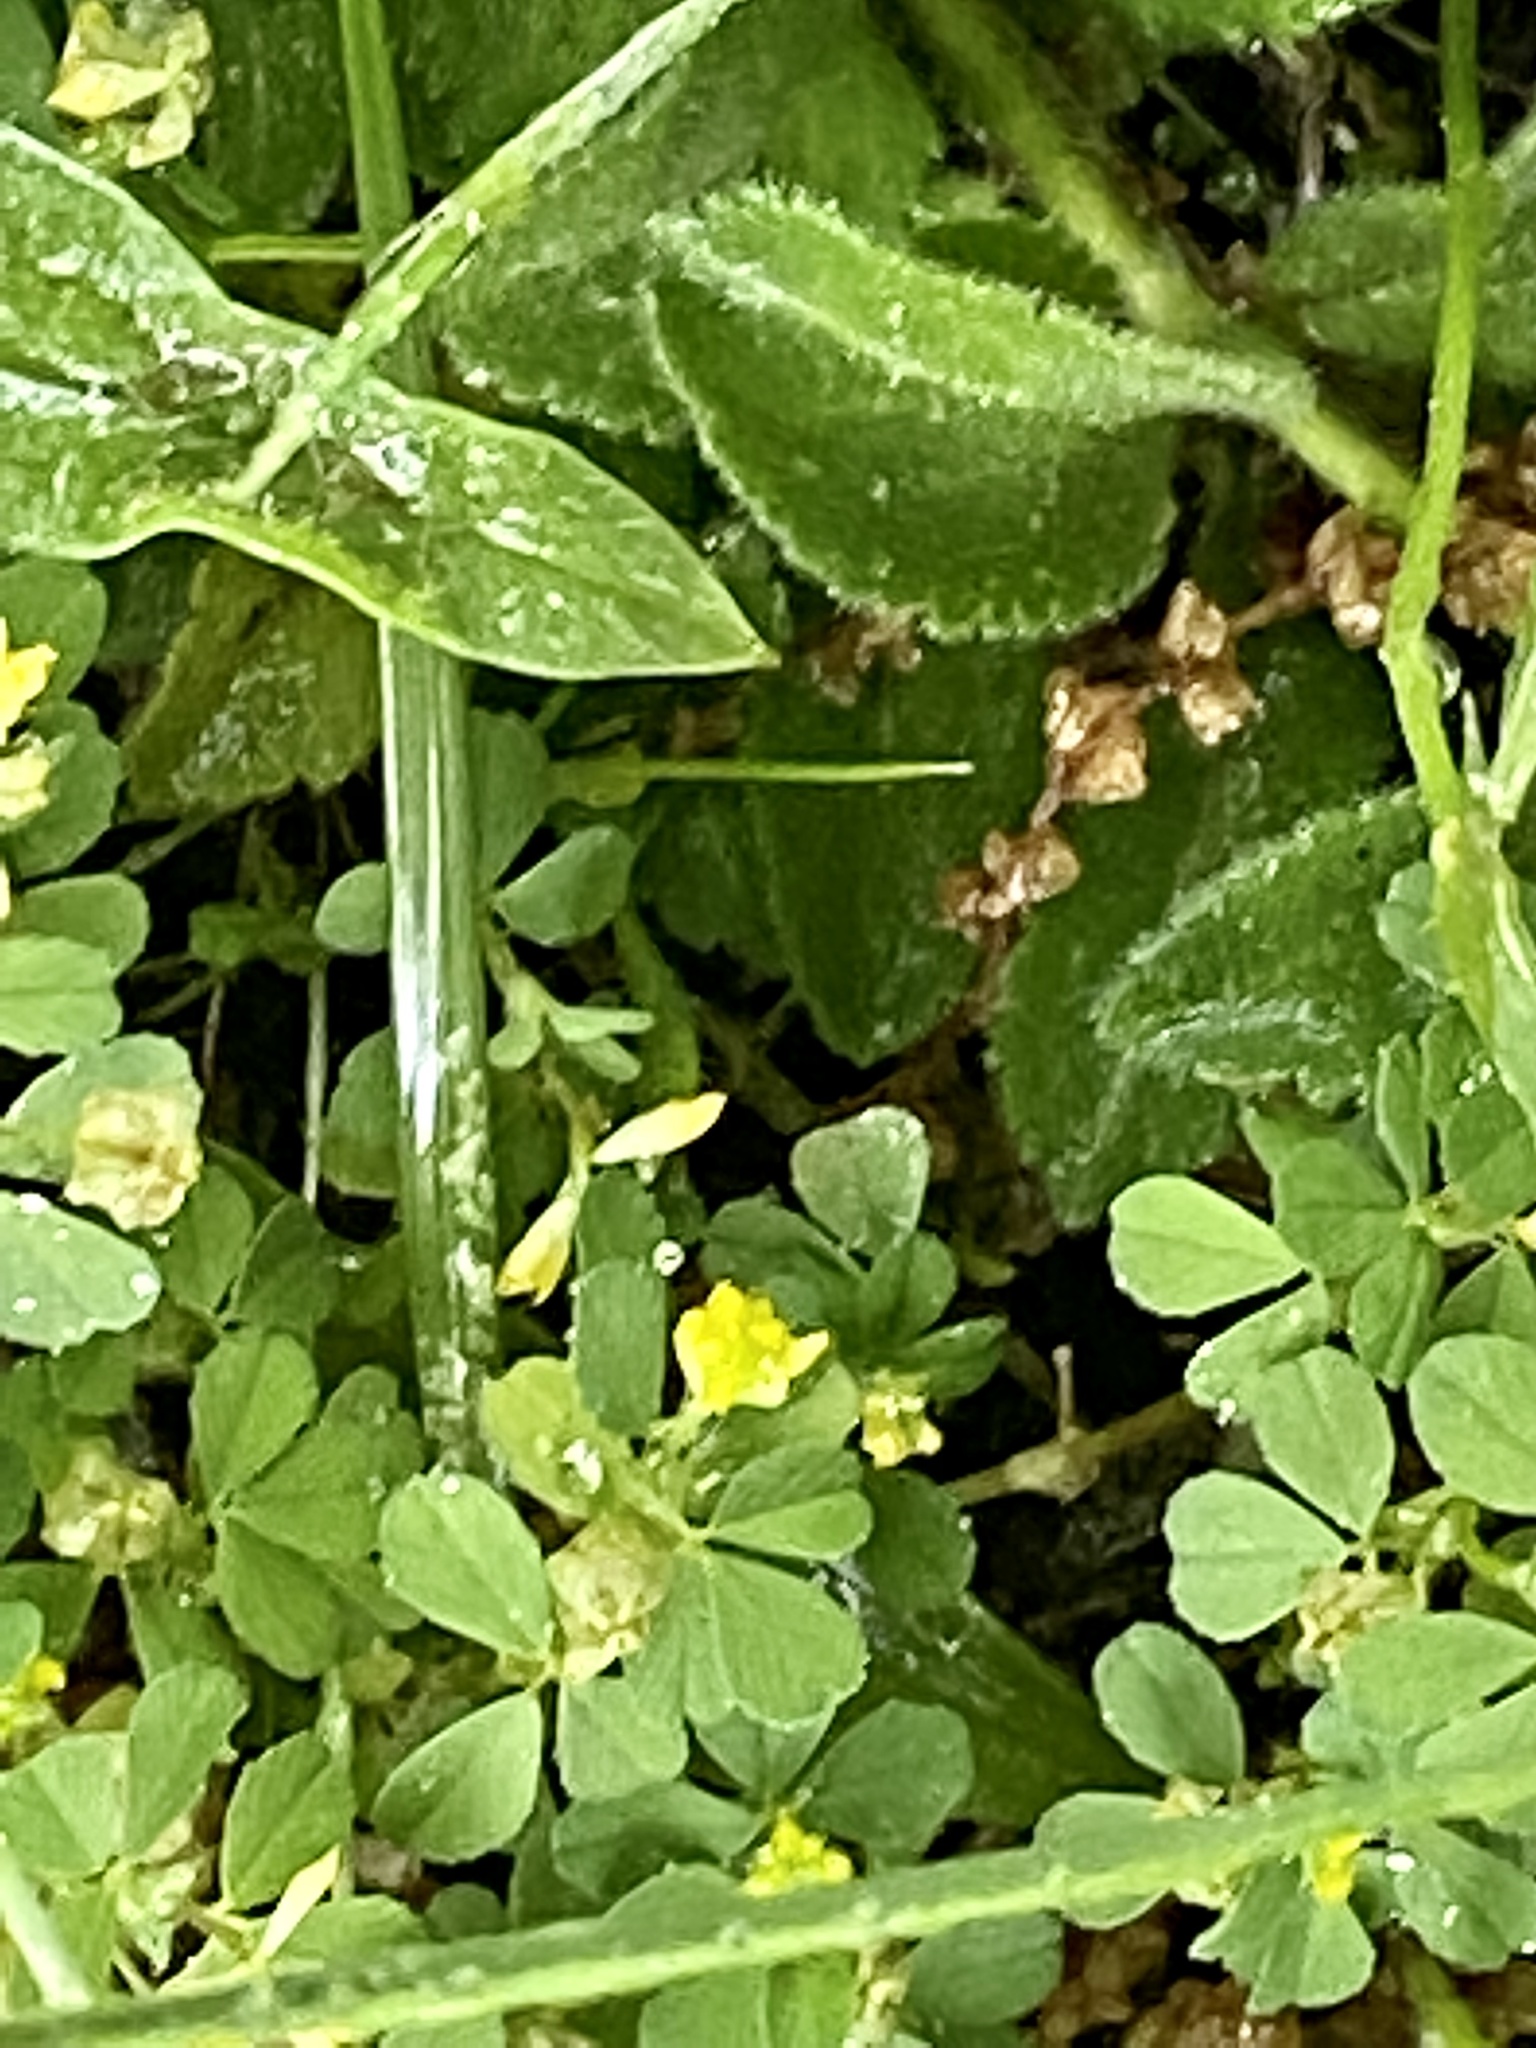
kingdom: Plantae
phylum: Tracheophyta
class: Magnoliopsida
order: Fabales
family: Fabaceae
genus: Trifolium
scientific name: Trifolium dubium
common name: Suckling clover
